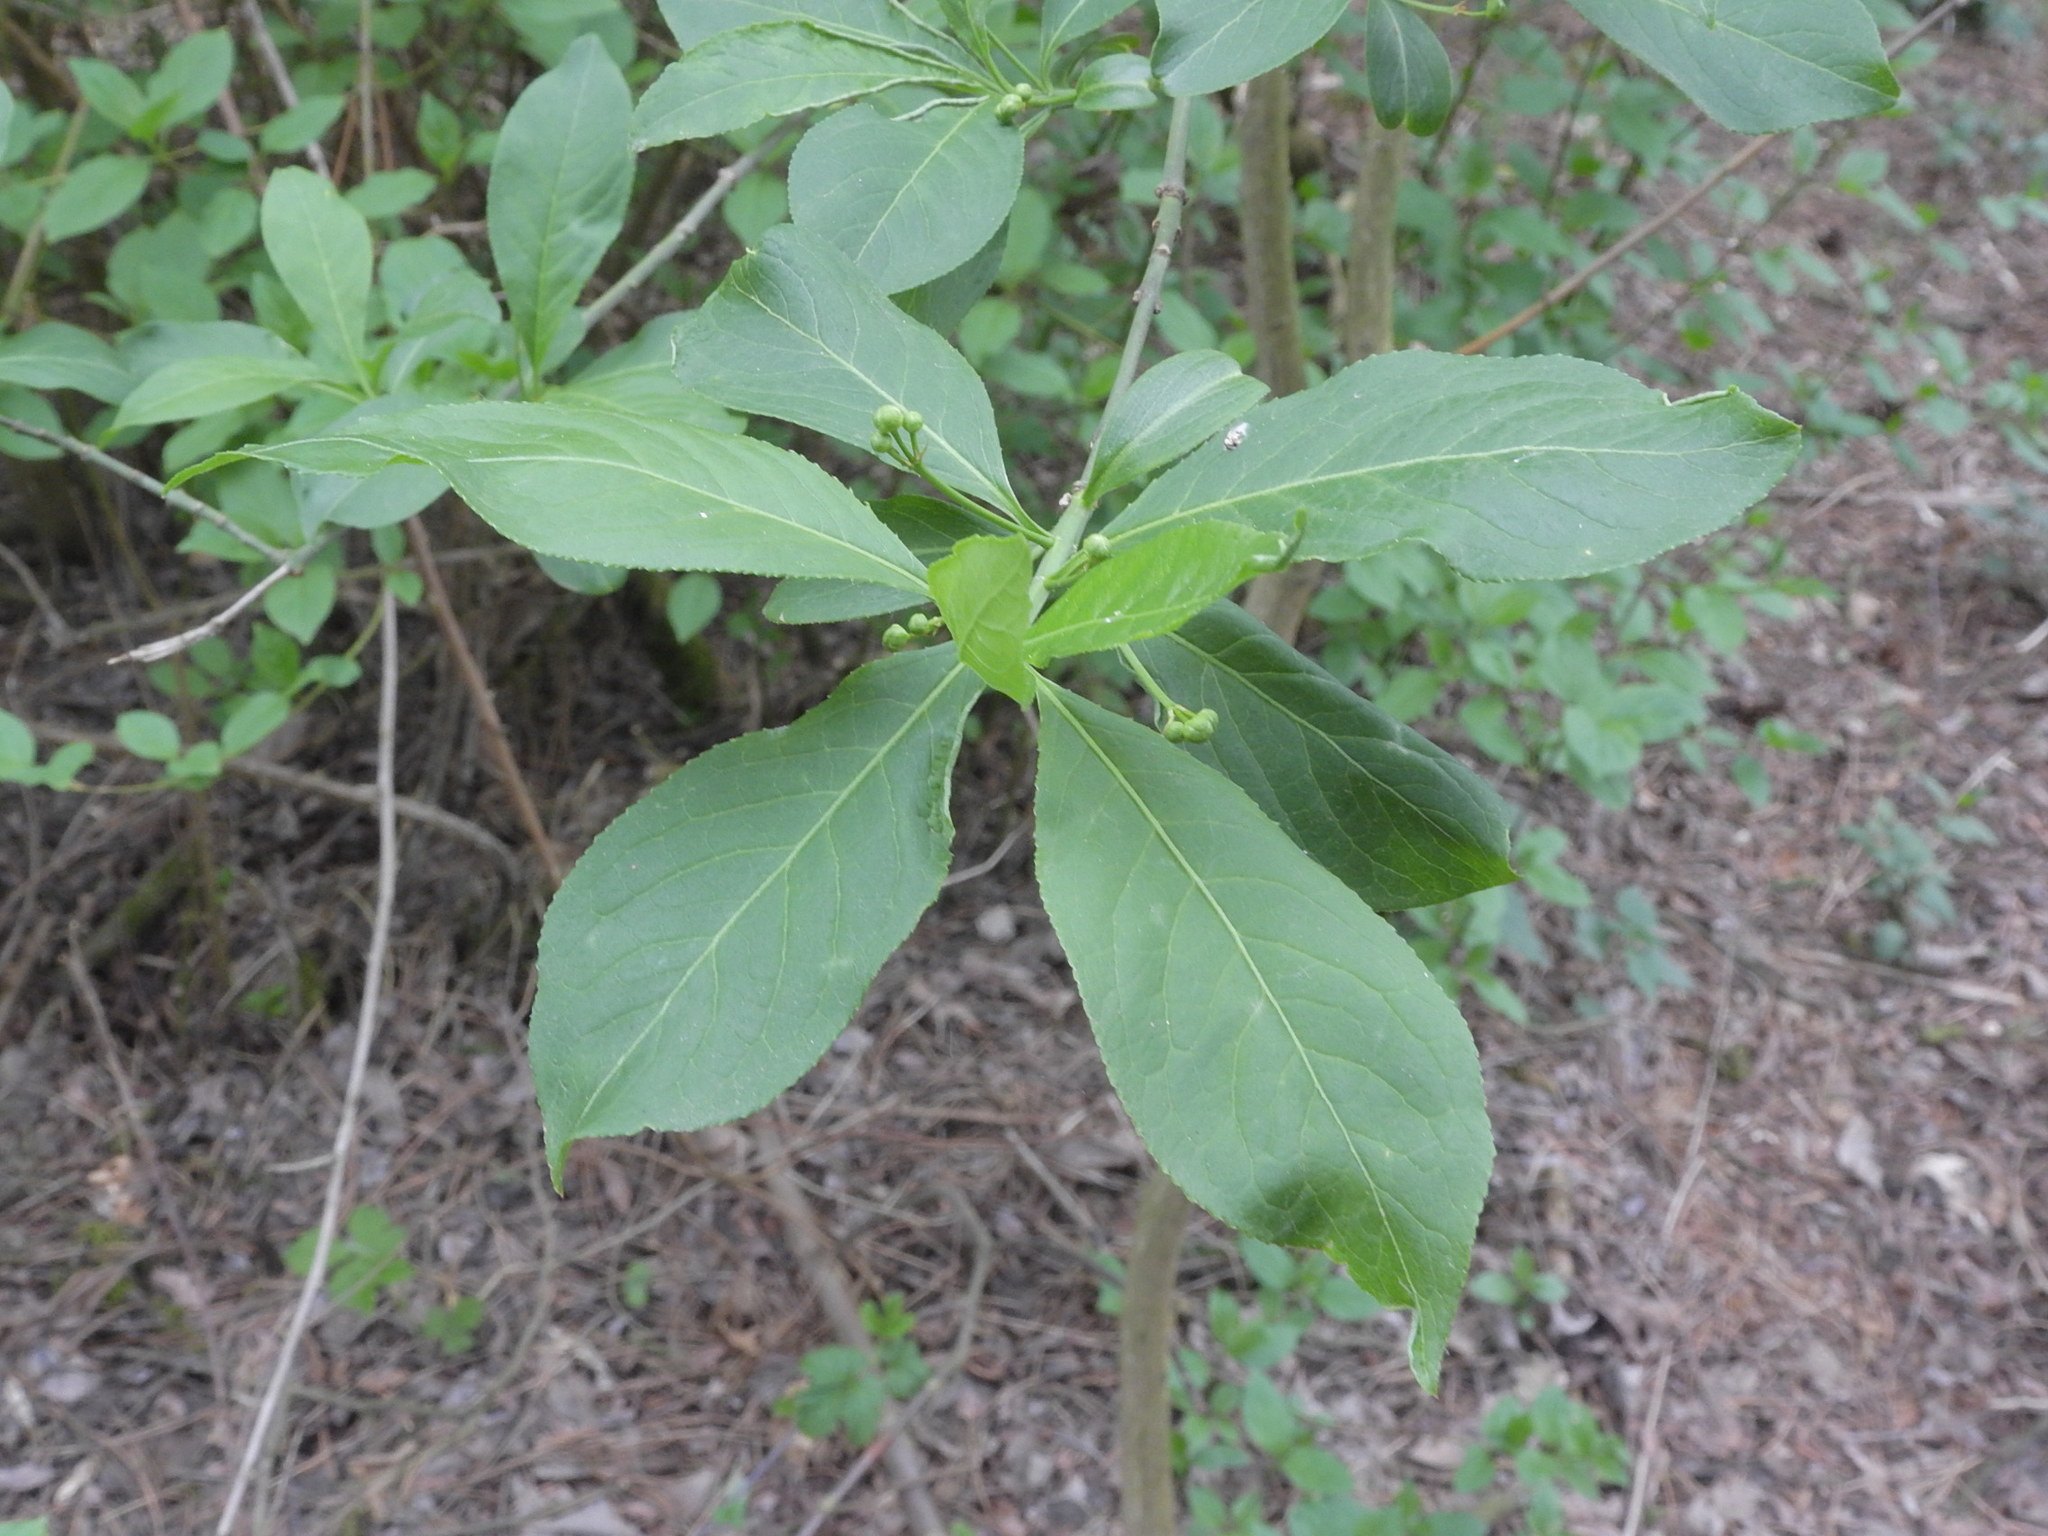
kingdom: Plantae
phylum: Tracheophyta
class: Magnoliopsida
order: Celastrales
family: Celastraceae
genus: Euonymus
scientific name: Euonymus europaeus
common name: Spindle
